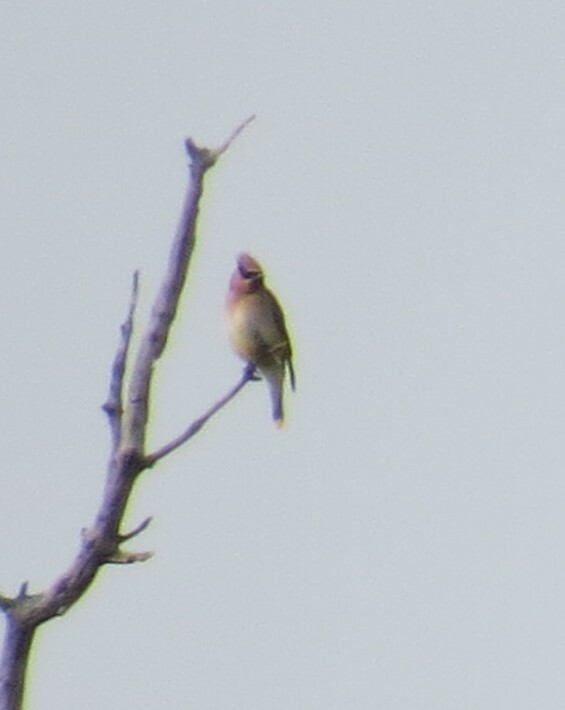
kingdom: Animalia
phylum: Chordata
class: Aves
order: Passeriformes
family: Bombycillidae
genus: Bombycilla
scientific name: Bombycilla cedrorum
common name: Cedar waxwing
